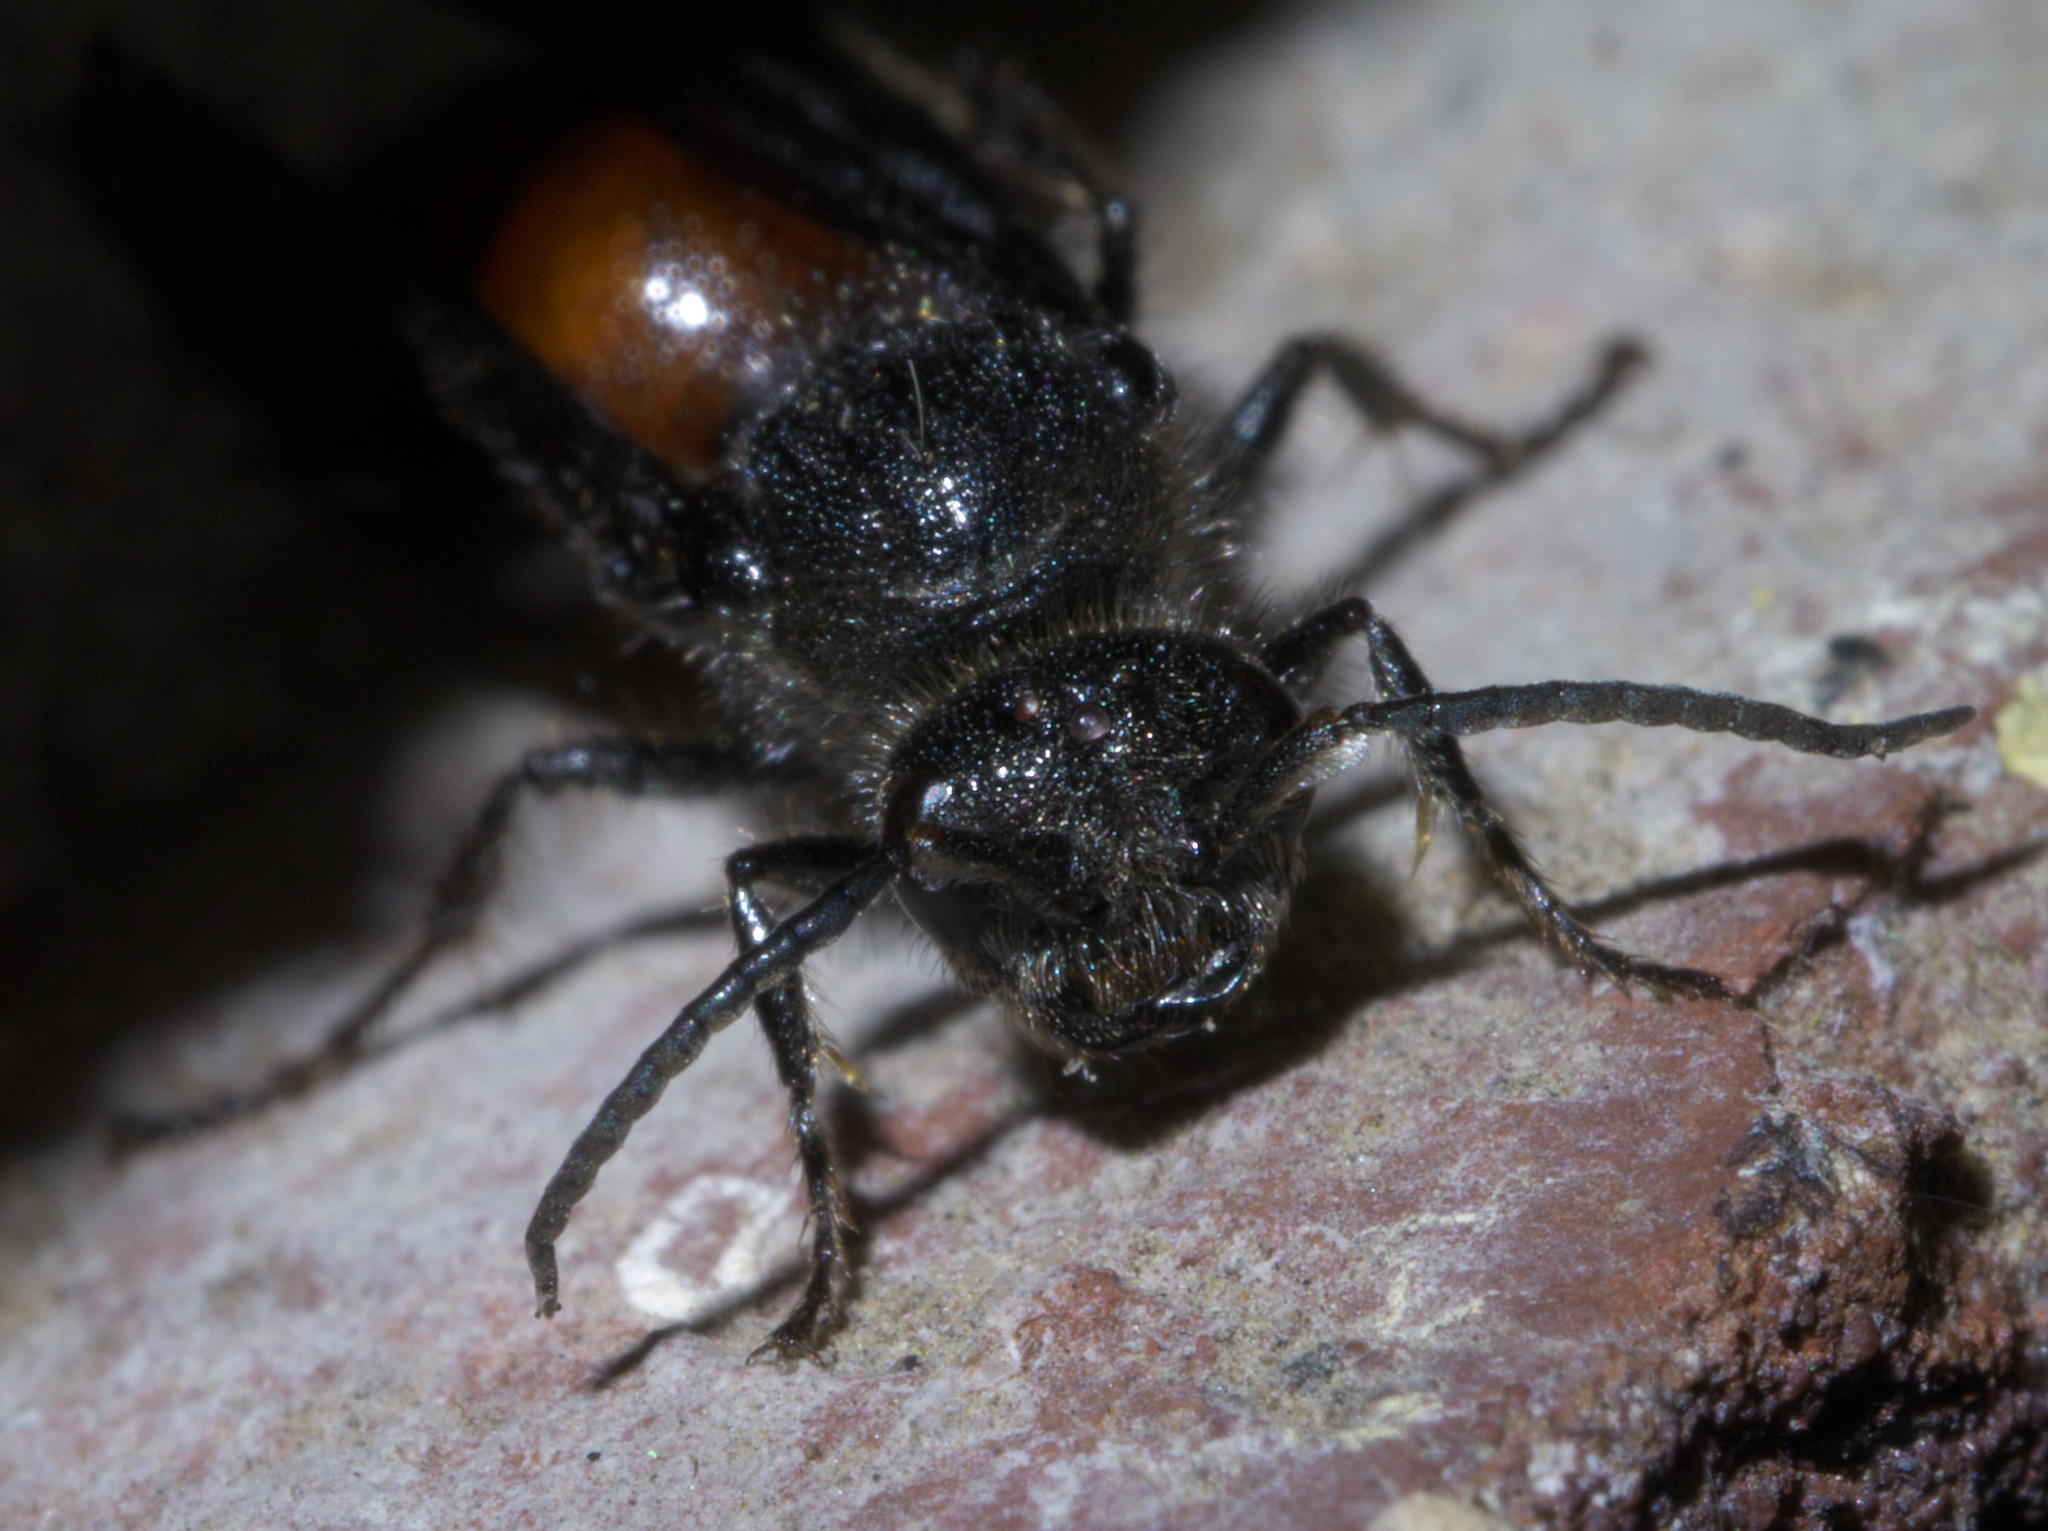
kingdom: Animalia
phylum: Arthropoda
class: Insecta
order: Hymenoptera
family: Mutillidae
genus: Timulla
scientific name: Timulla
